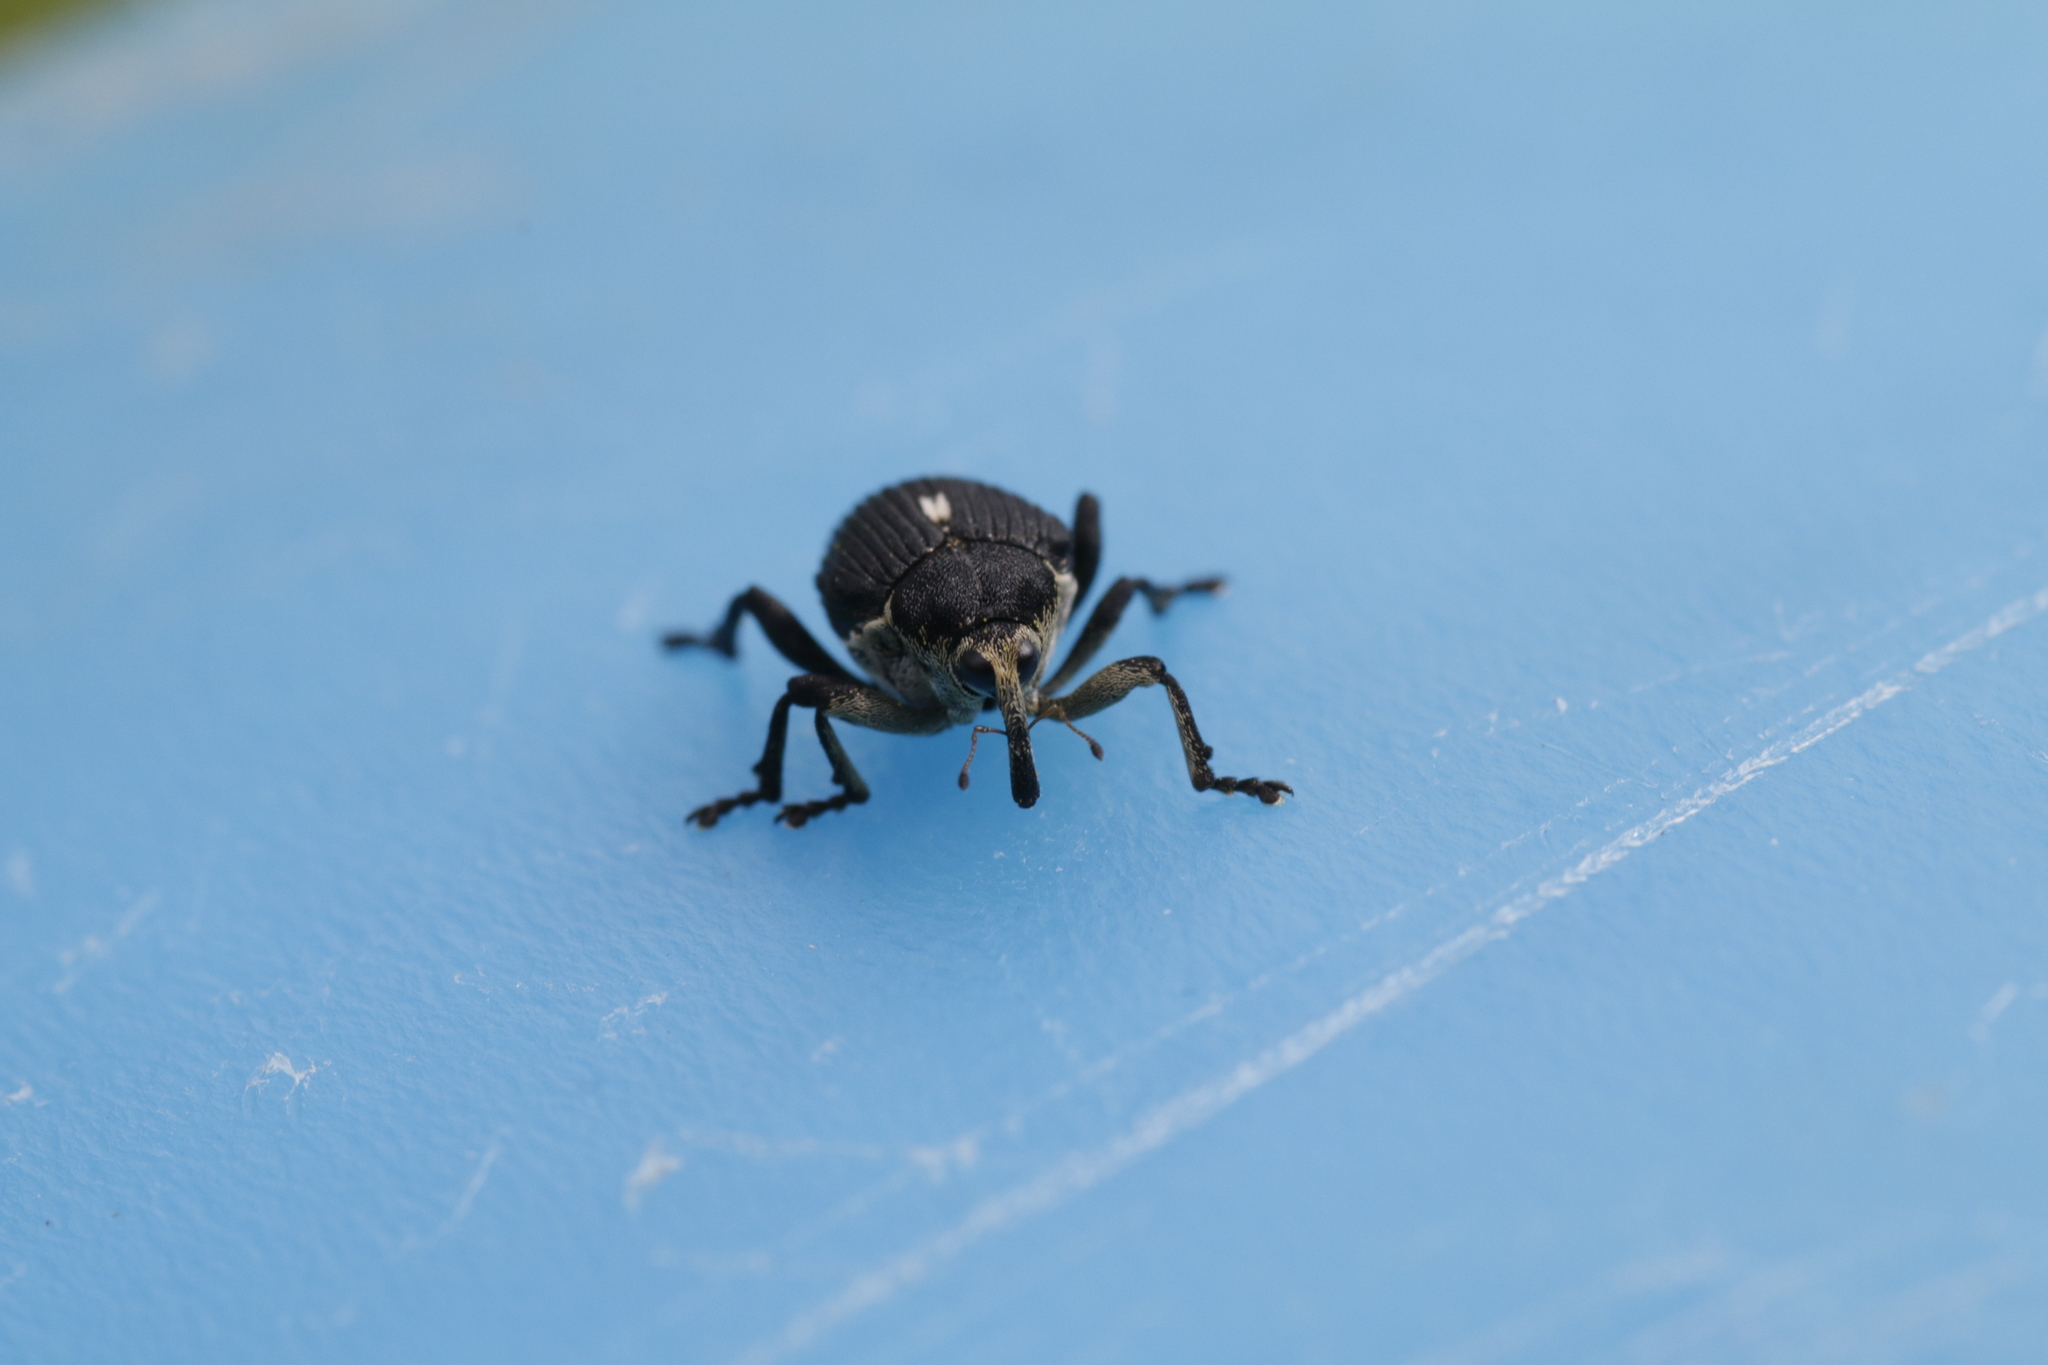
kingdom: Animalia
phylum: Arthropoda
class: Insecta
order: Coleoptera
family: Curculionidae
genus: Mononychus
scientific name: Mononychus punctumalbum
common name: Iris weevil
